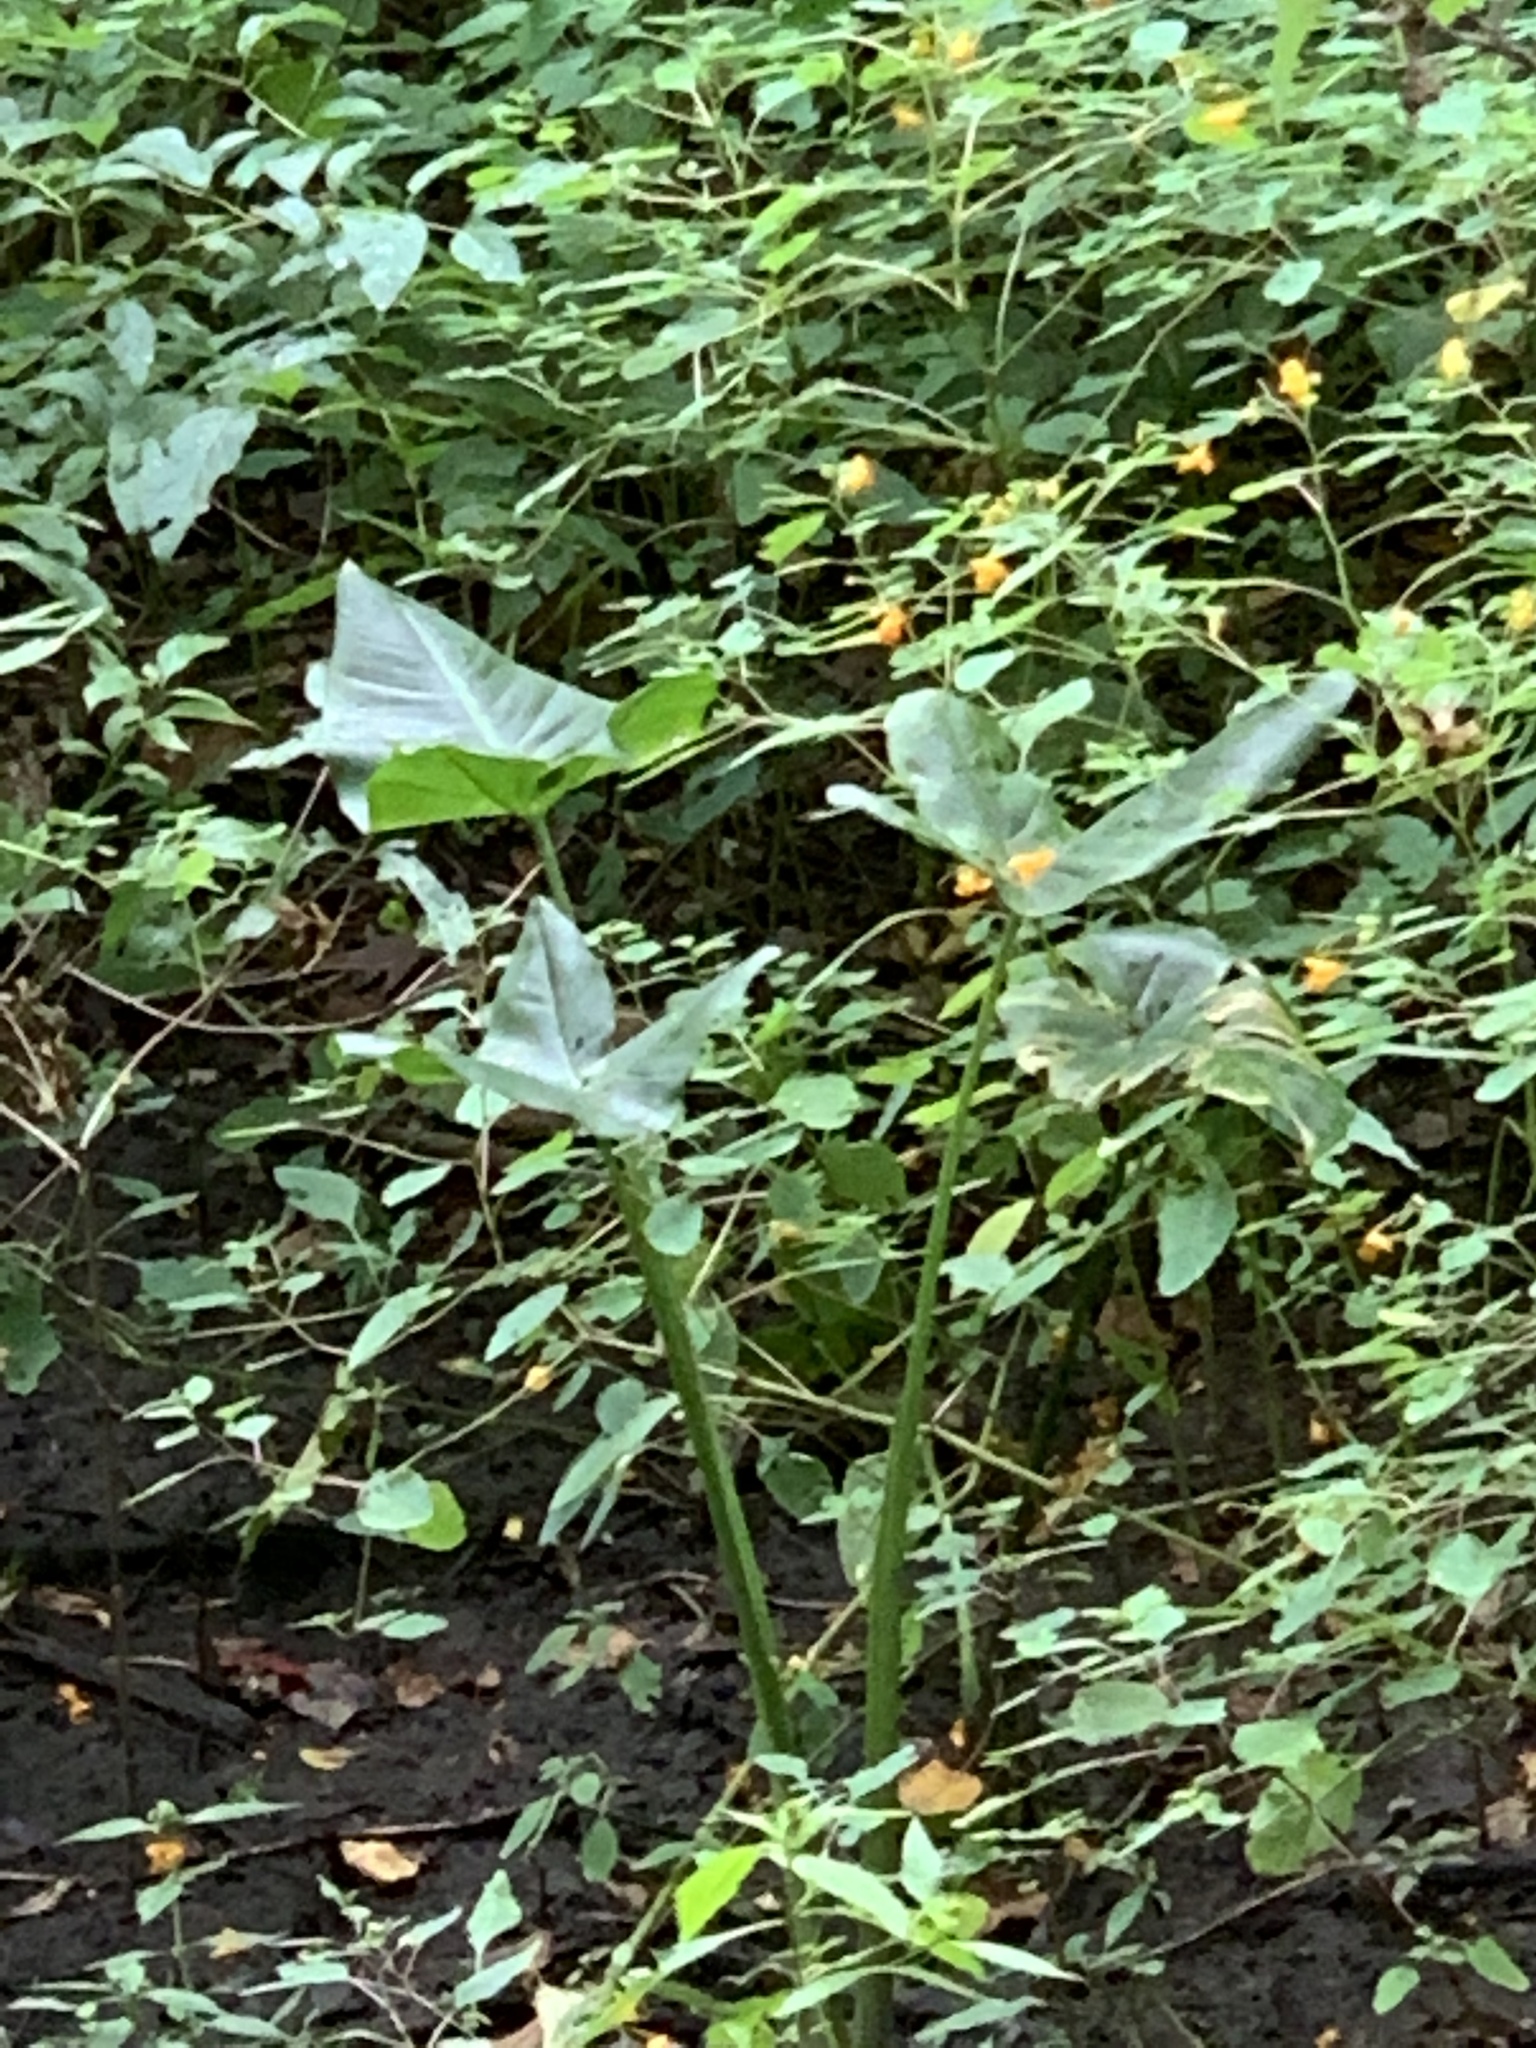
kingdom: Plantae
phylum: Tracheophyta
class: Liliopsida
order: Alismatales
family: Araceae
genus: Peltandra
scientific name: Peltandra virginica
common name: Arrow arum
